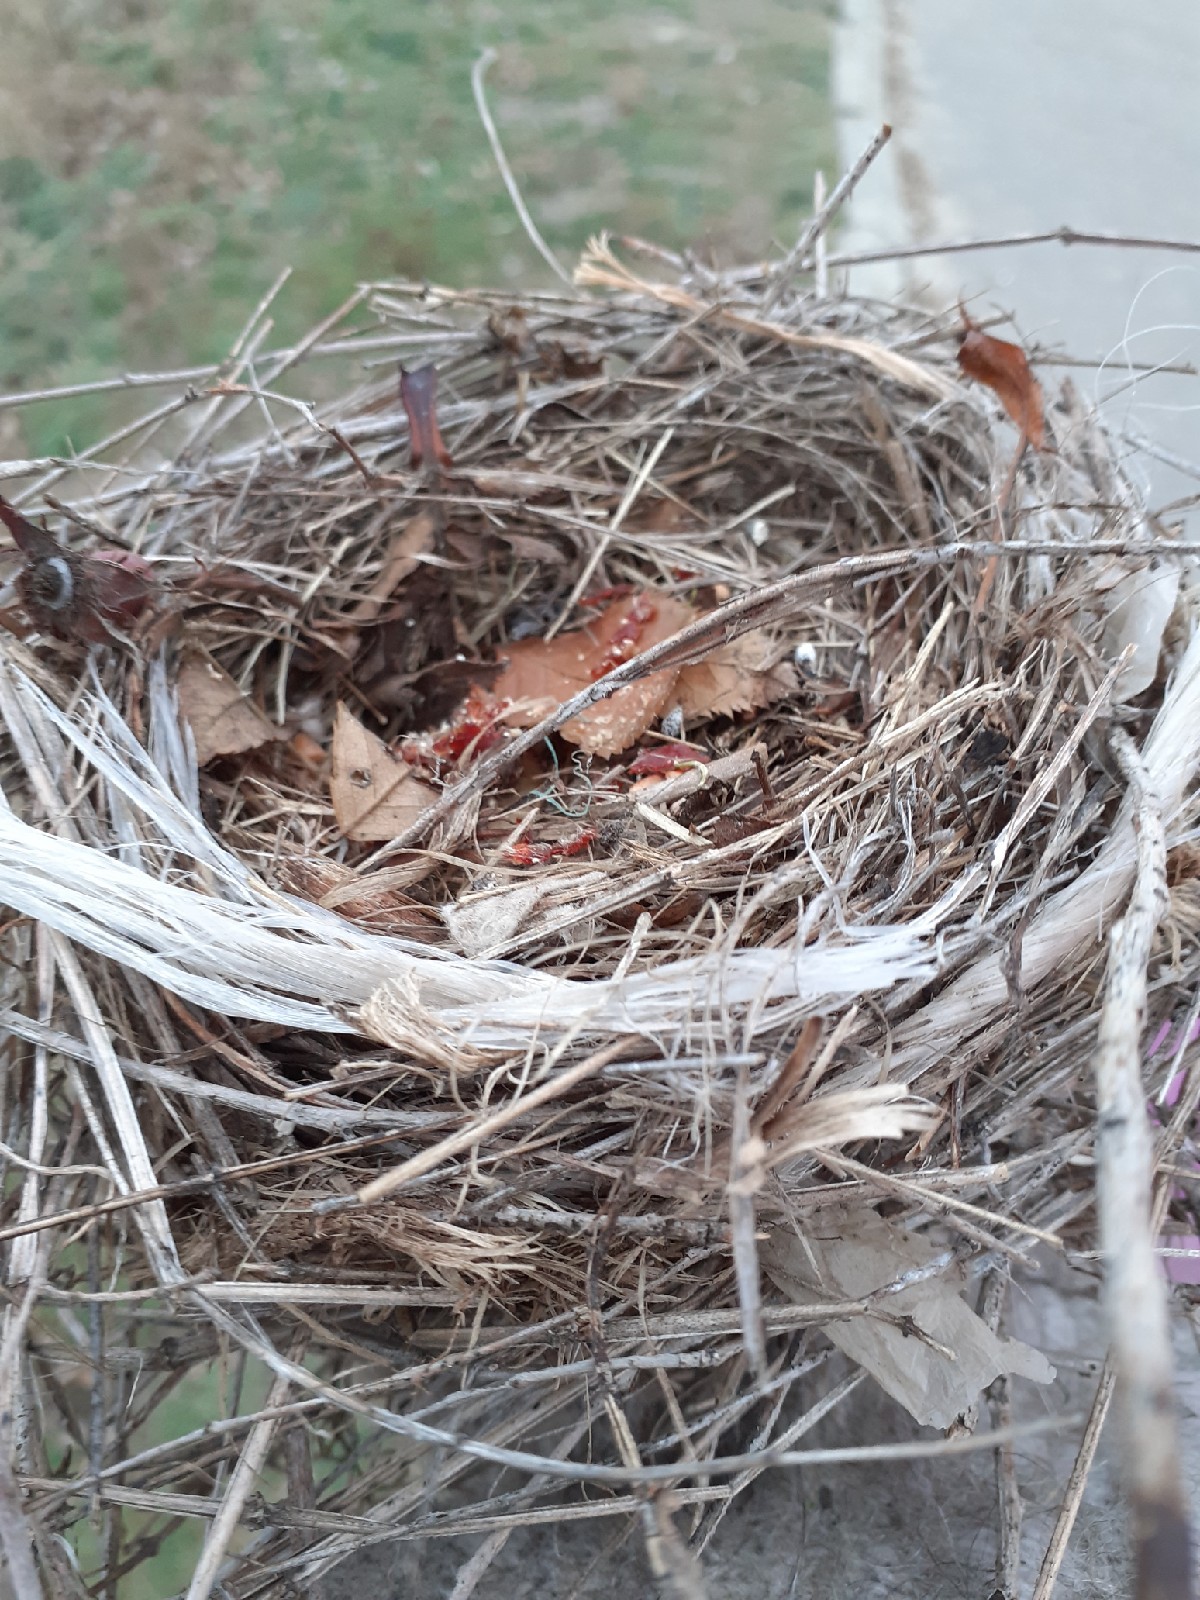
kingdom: Animalia
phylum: Chordata
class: Aves
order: Passeriformes
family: Laniidae
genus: Lanius
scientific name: Lanius collurio
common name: Red-backed shrike
